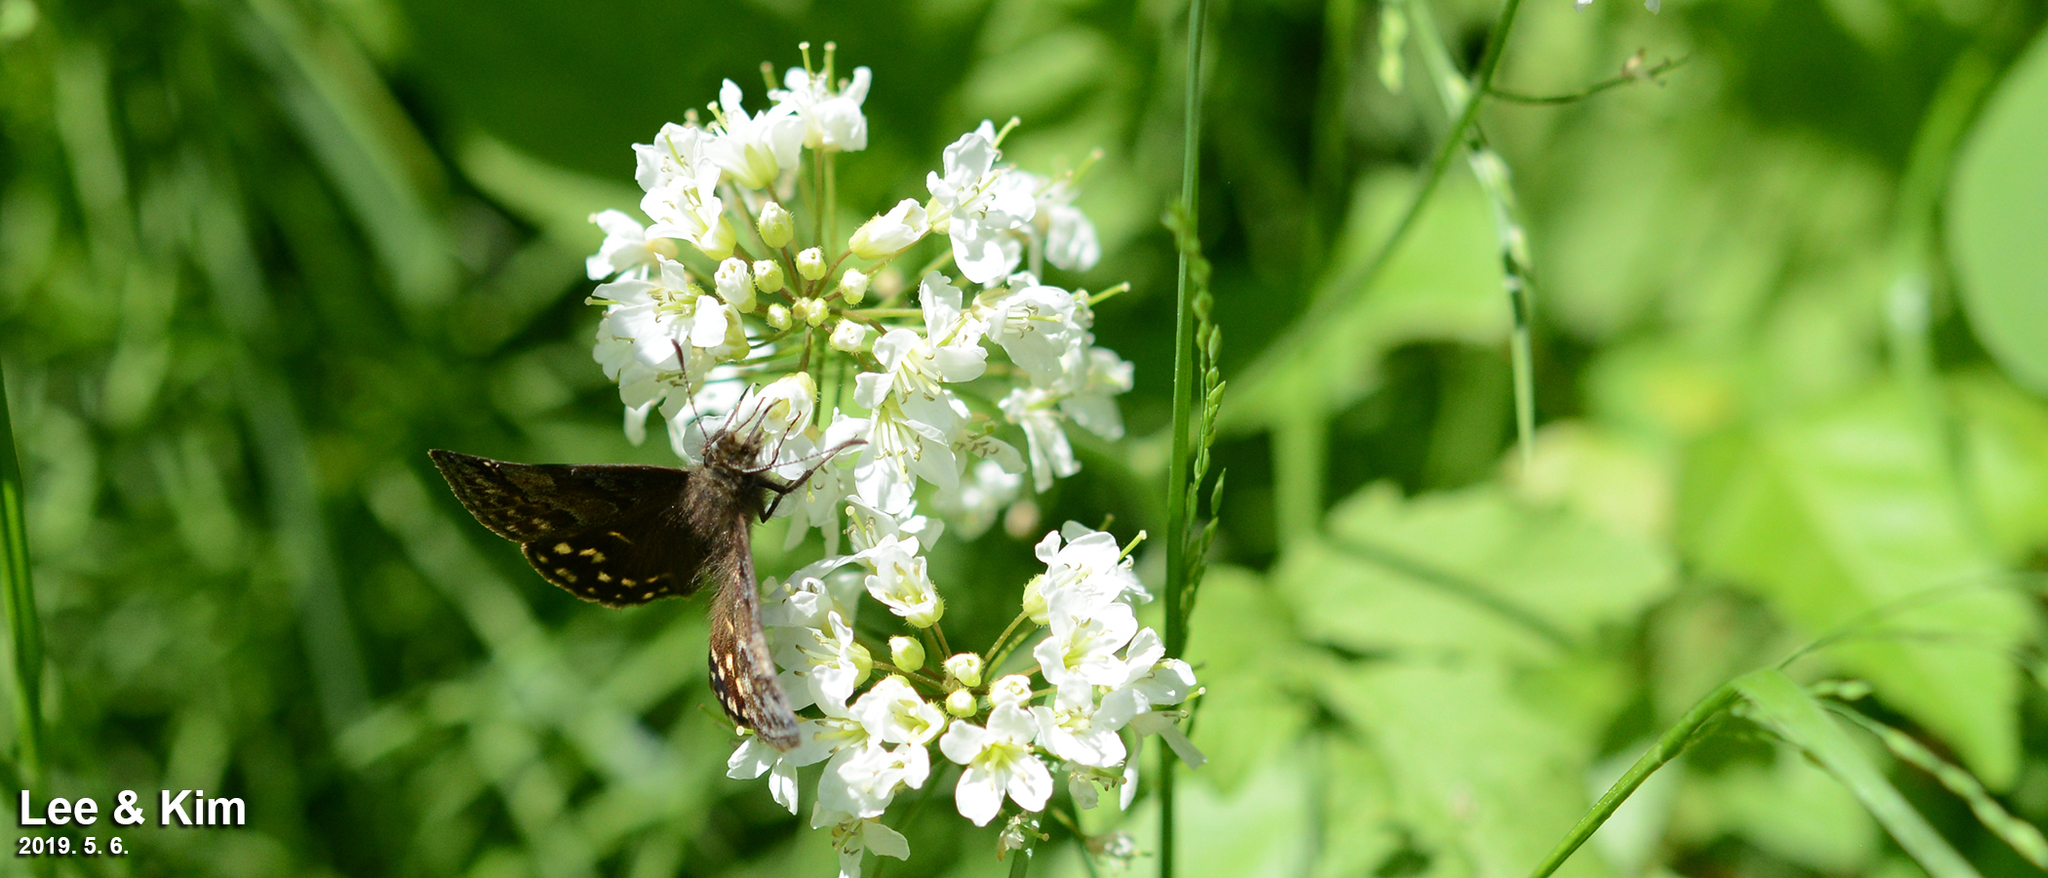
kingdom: Animalia
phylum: Arthropoda
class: Insecta
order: Lepidoptera
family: Hesperiidae
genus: Erynnis
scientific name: Erynnis montanus
